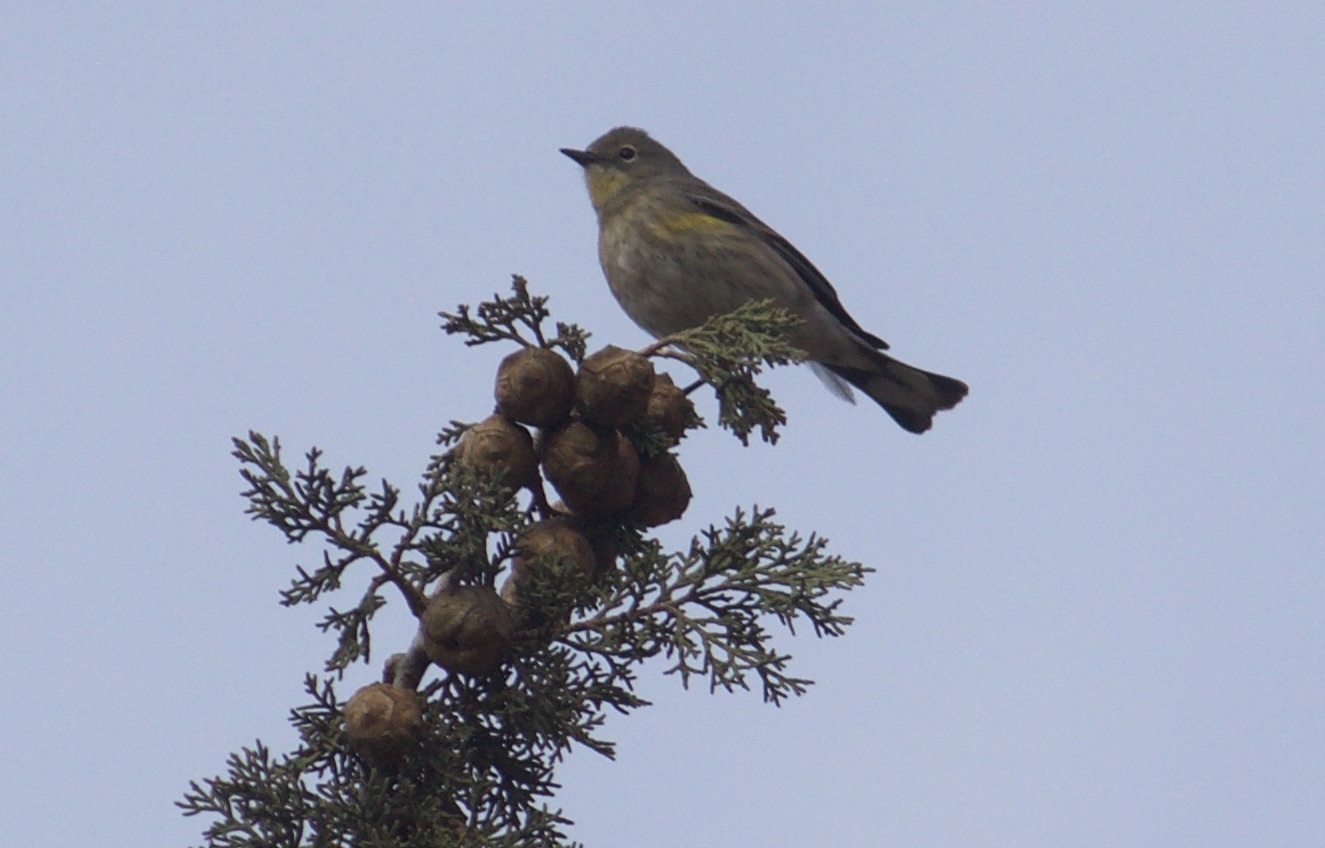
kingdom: Animalia
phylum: Chordata
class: Aves
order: Passeriformes
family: Parulidae
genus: Setophaga
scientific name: Setophaga coronata
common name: Myrtle warbler
